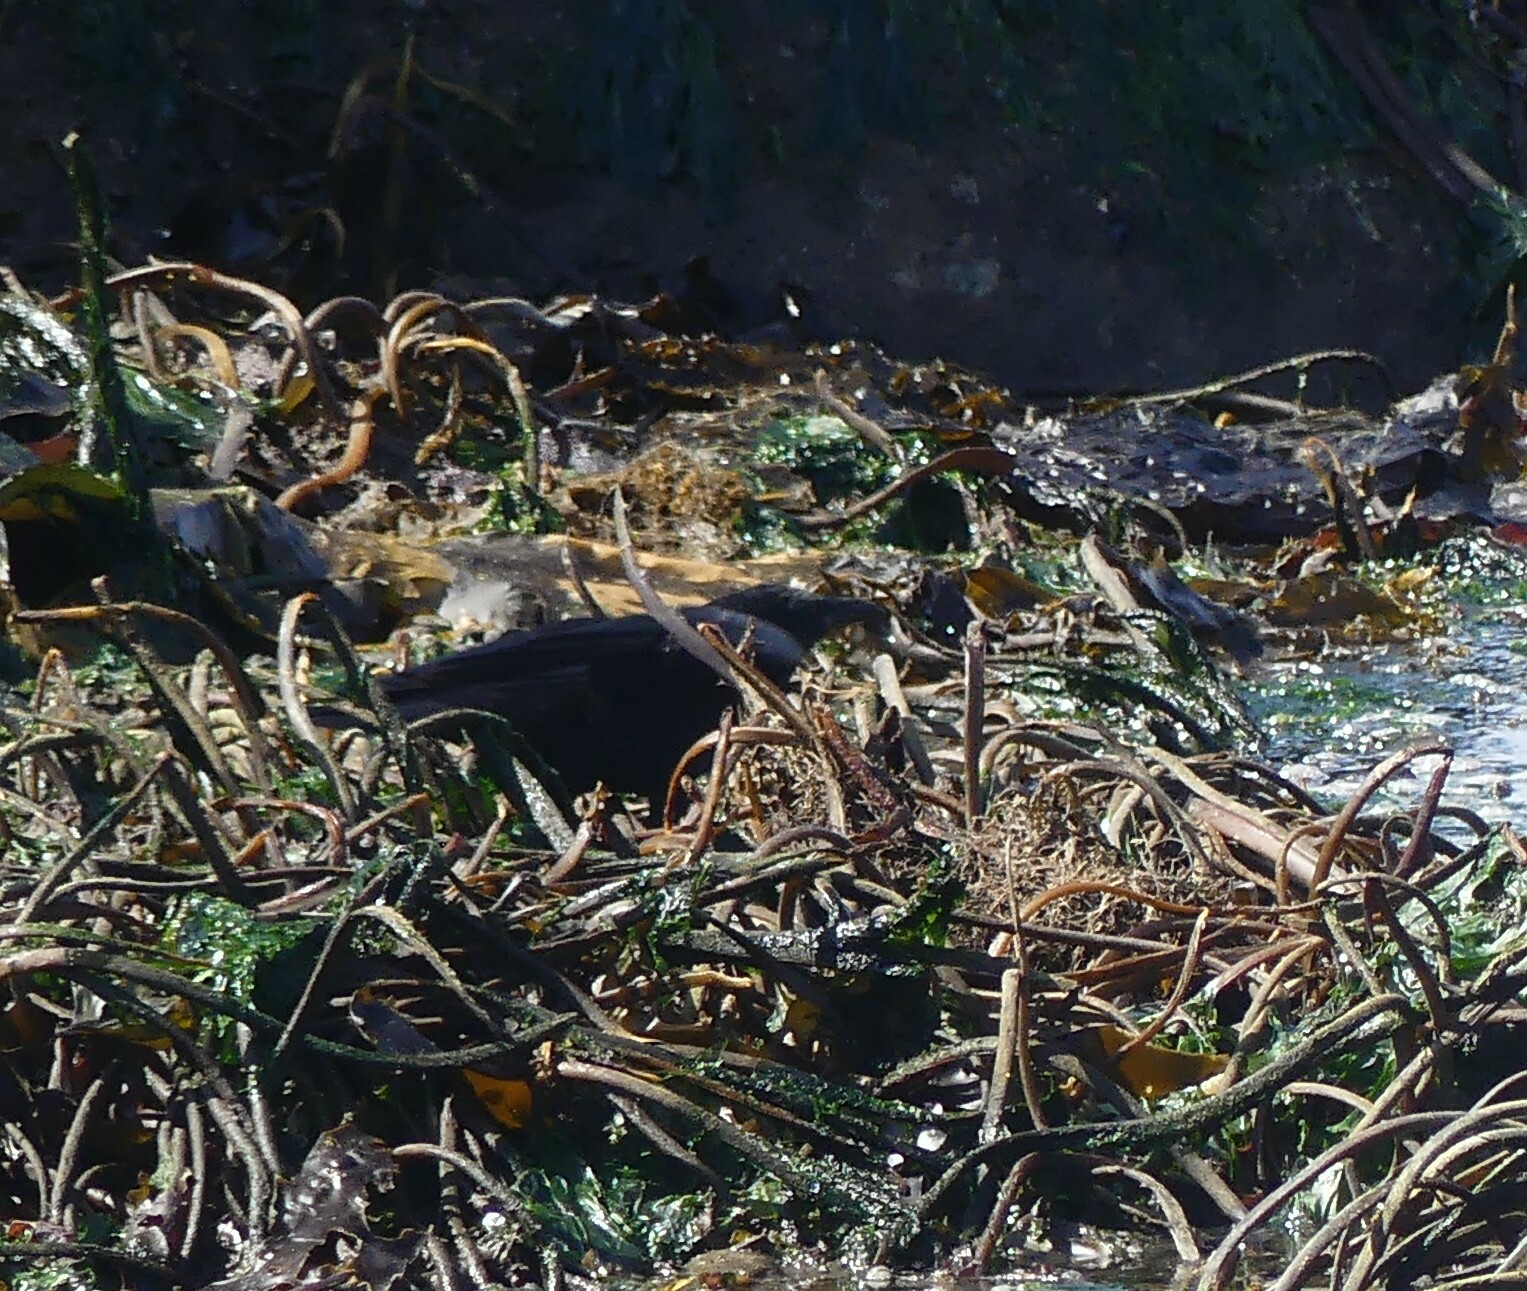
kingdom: Animalia
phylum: Chordata
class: Aves
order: Passeriformes
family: Corvidae
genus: Corvus
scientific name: Corvus brachyrhynchos
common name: American crow
